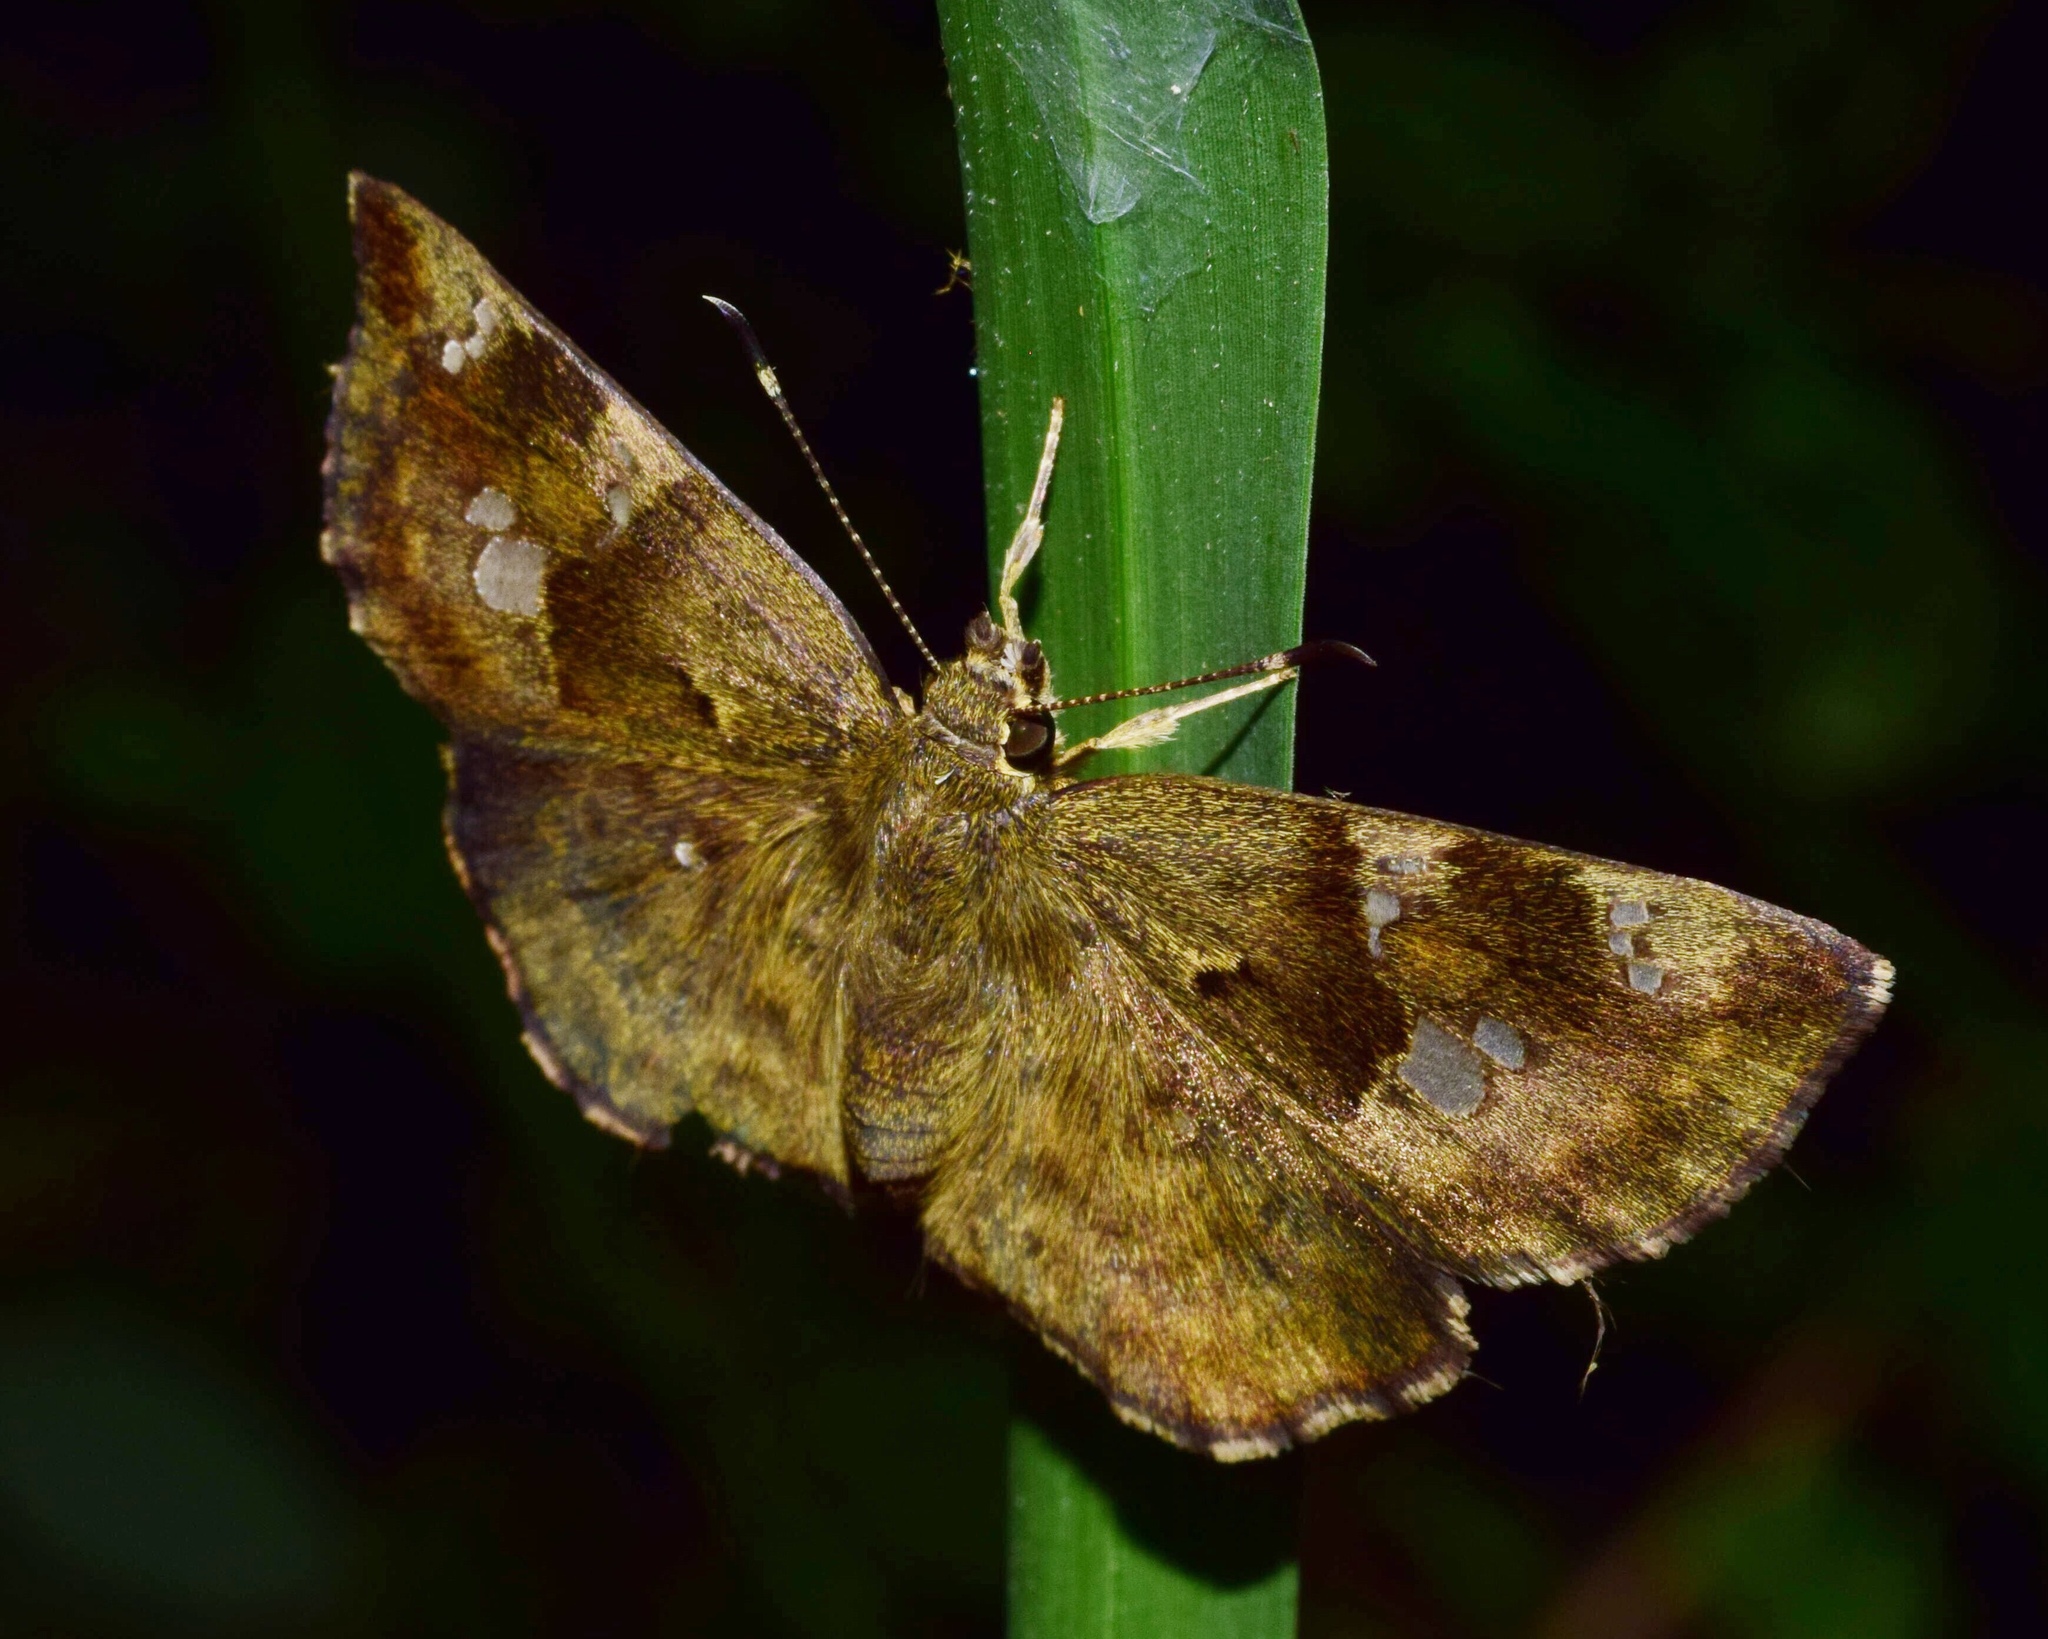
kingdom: Animalia
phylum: Arthropoda
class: Insecta
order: Lepidoptera
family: Hesperiidae
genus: Sarangesa
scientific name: Sarangesa motozi
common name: Forest elfin
